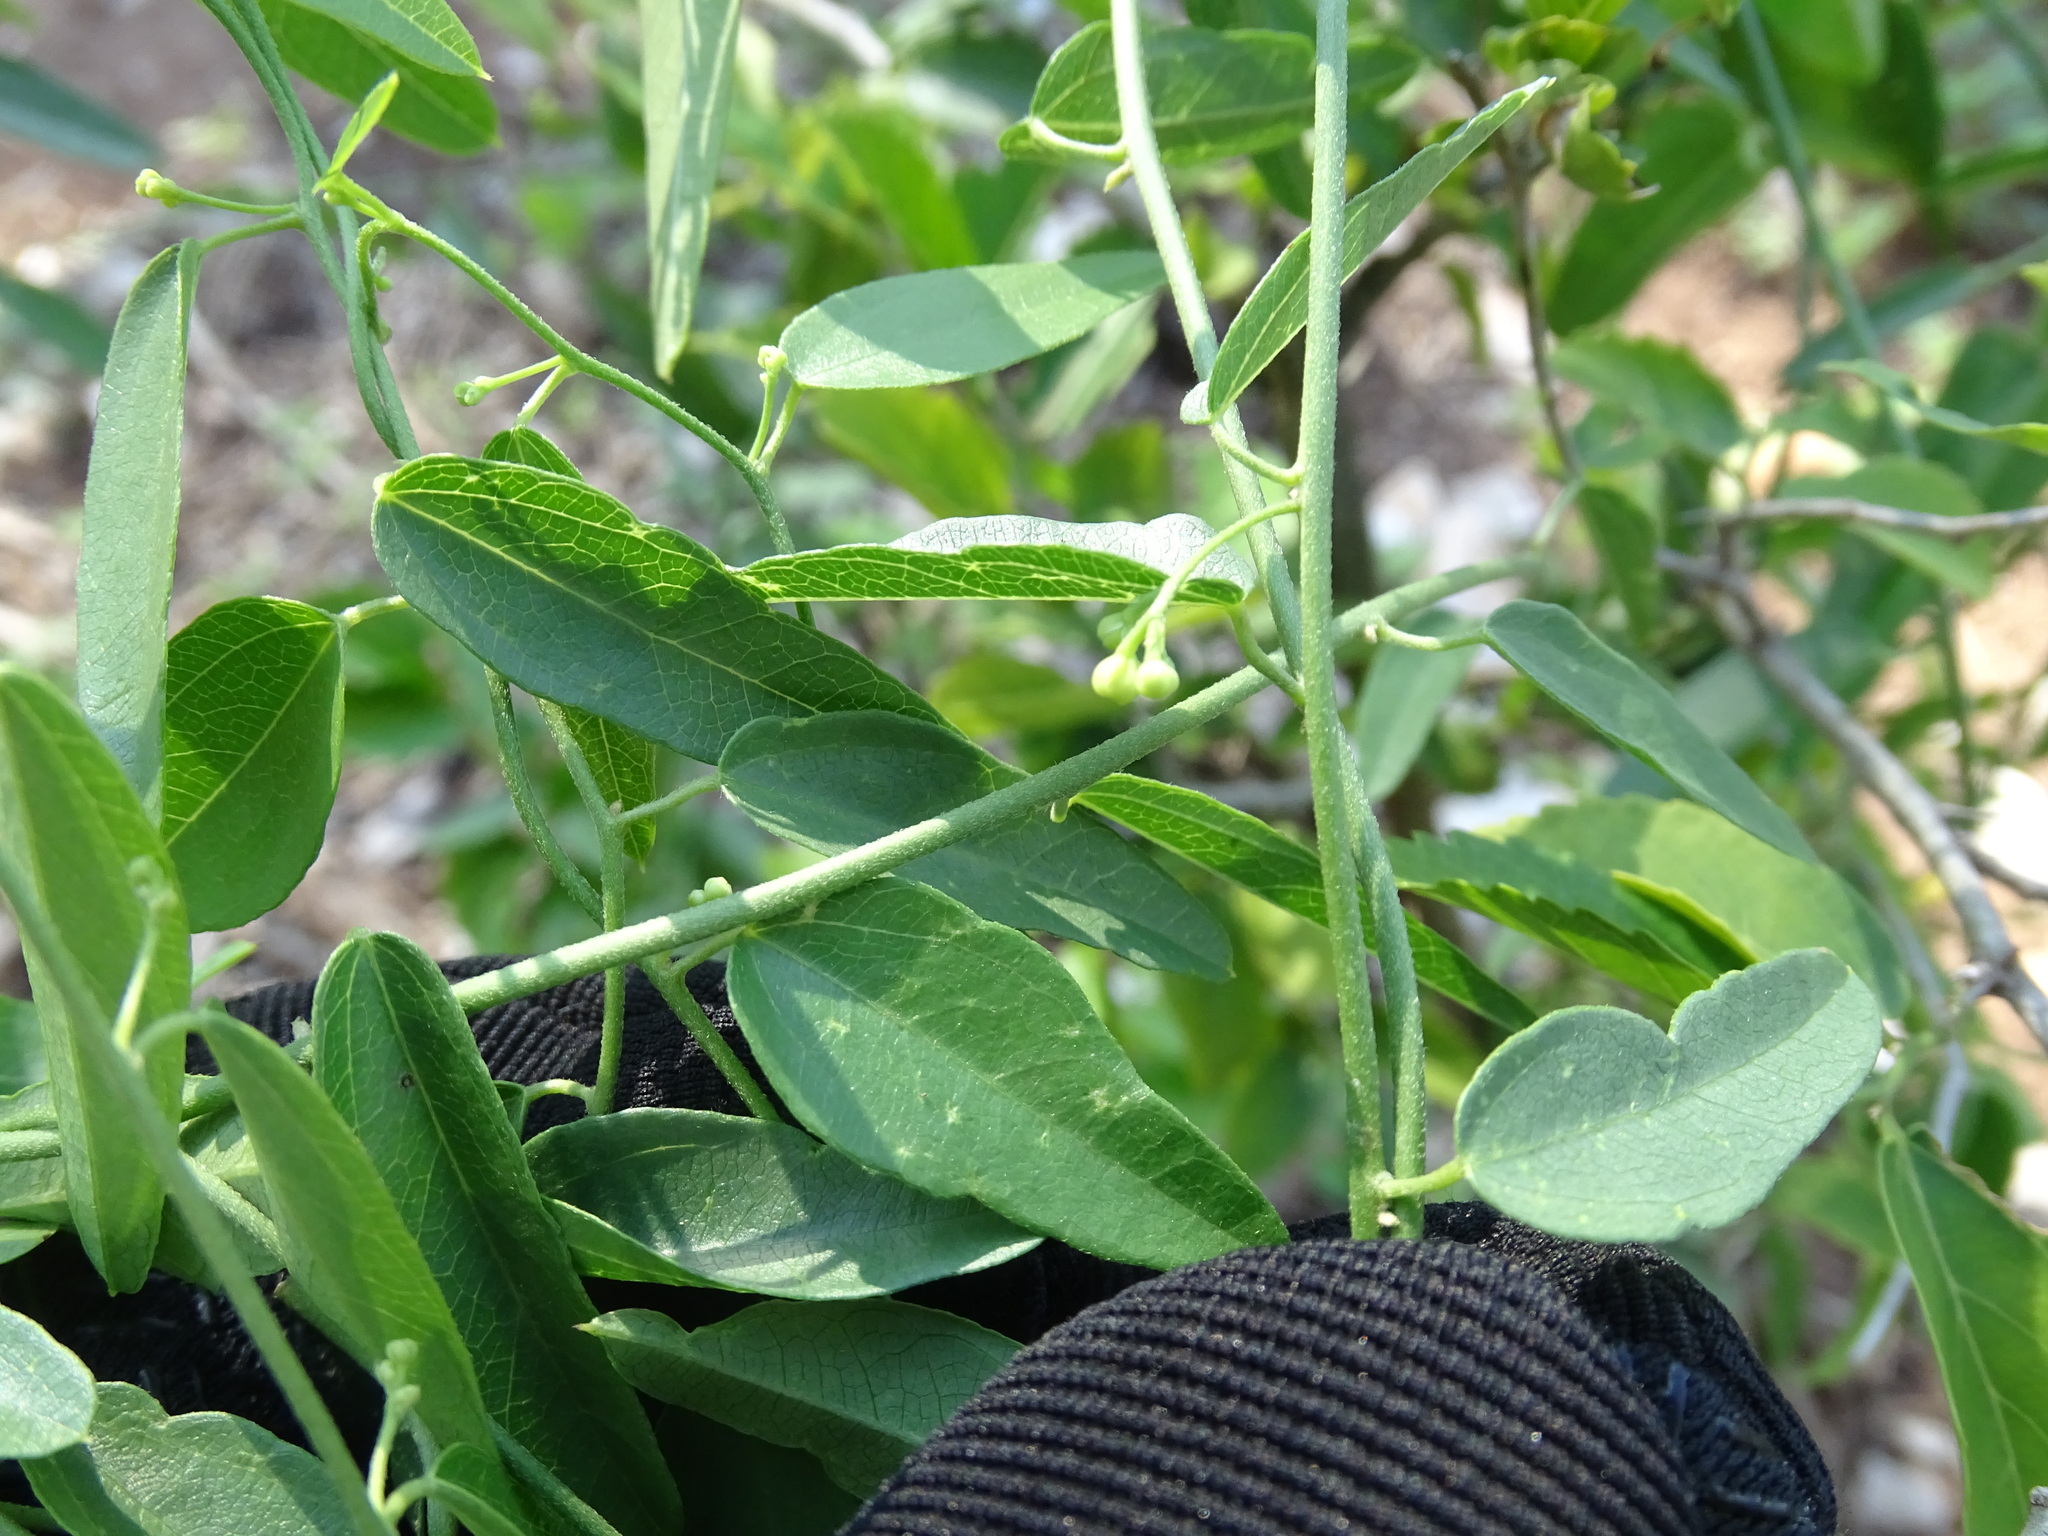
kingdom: Plantae
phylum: Tracheophyta
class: Magnoliopsida
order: Ranunculales
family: Menispermaceae
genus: Cocculus
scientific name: Cocculus diversifolius
